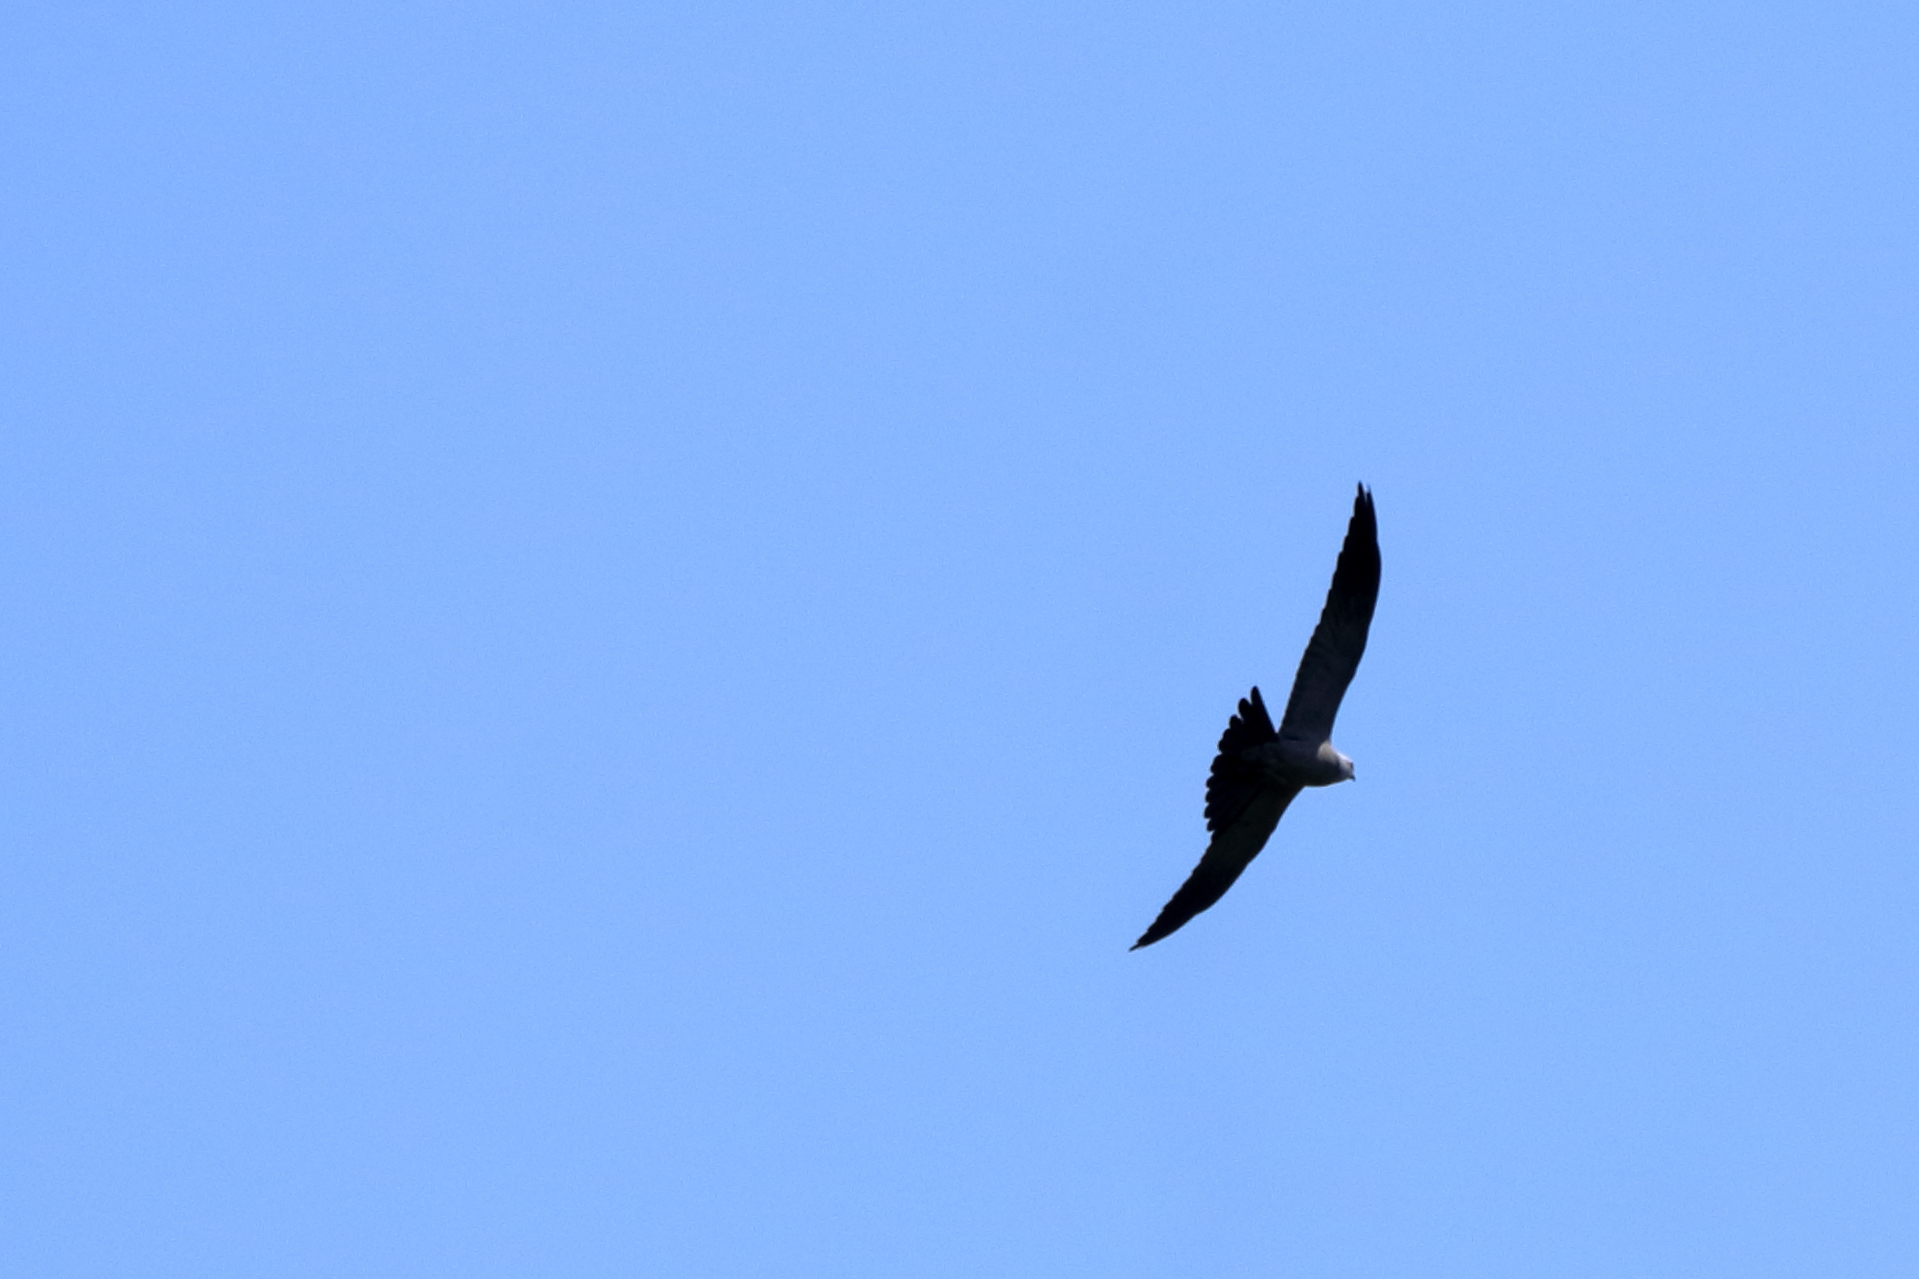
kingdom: Animalia
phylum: Chordata
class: Aves
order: Accipitriformes
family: Accipitridae
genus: Ictinia
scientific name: Ictinia mississippiensis
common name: Mississippi kite
